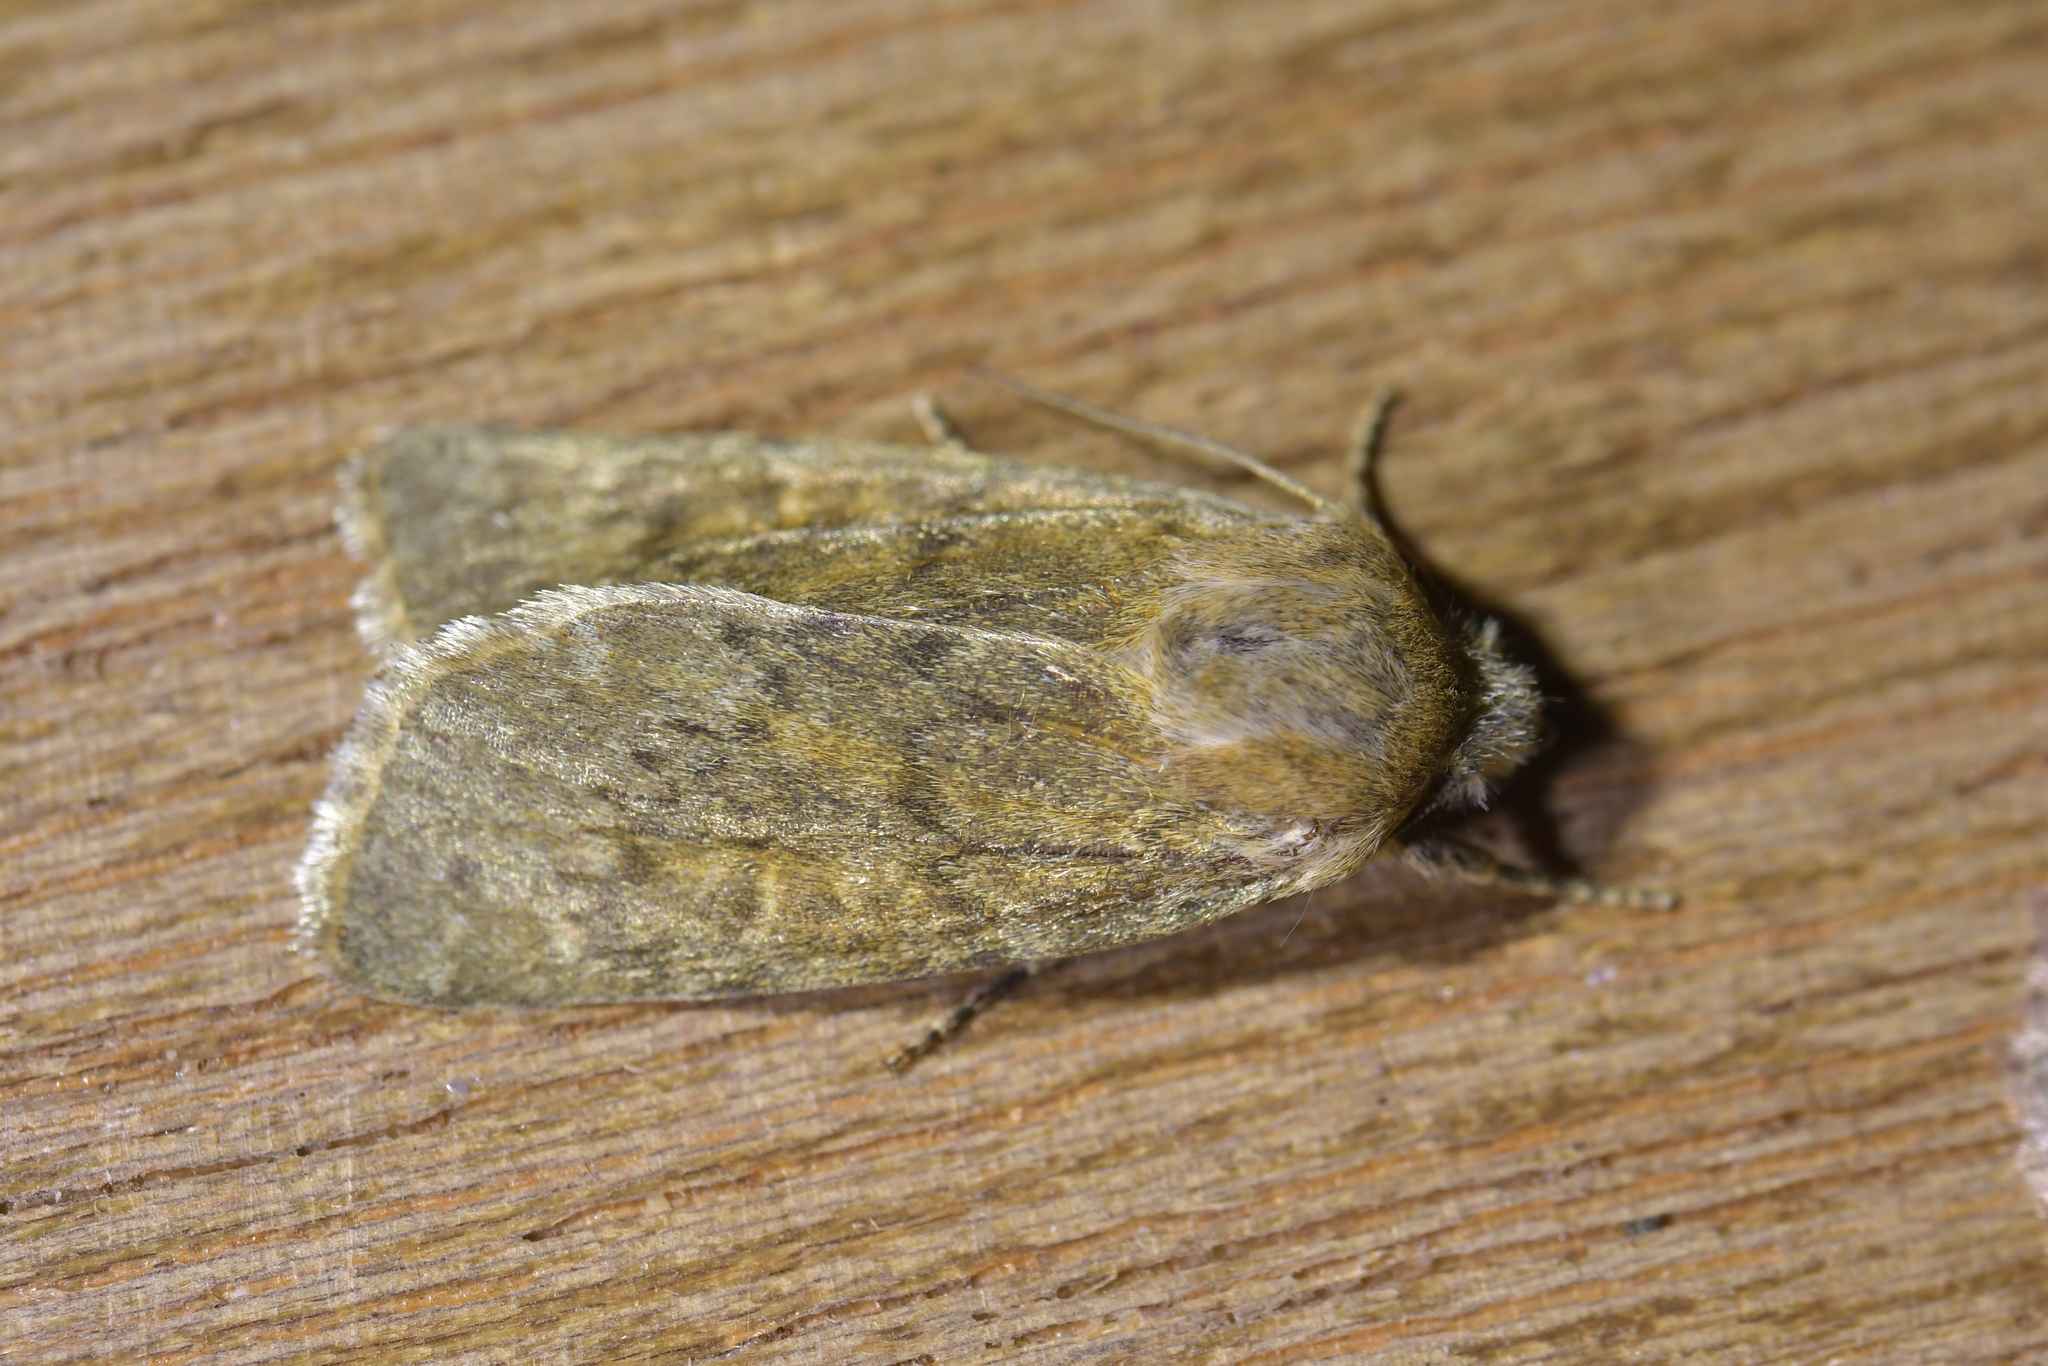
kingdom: Animalia
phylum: Arthropoda
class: Insecta
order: Lepidoptera
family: Noctuidae
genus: Physetica
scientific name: Physetica caerulea
